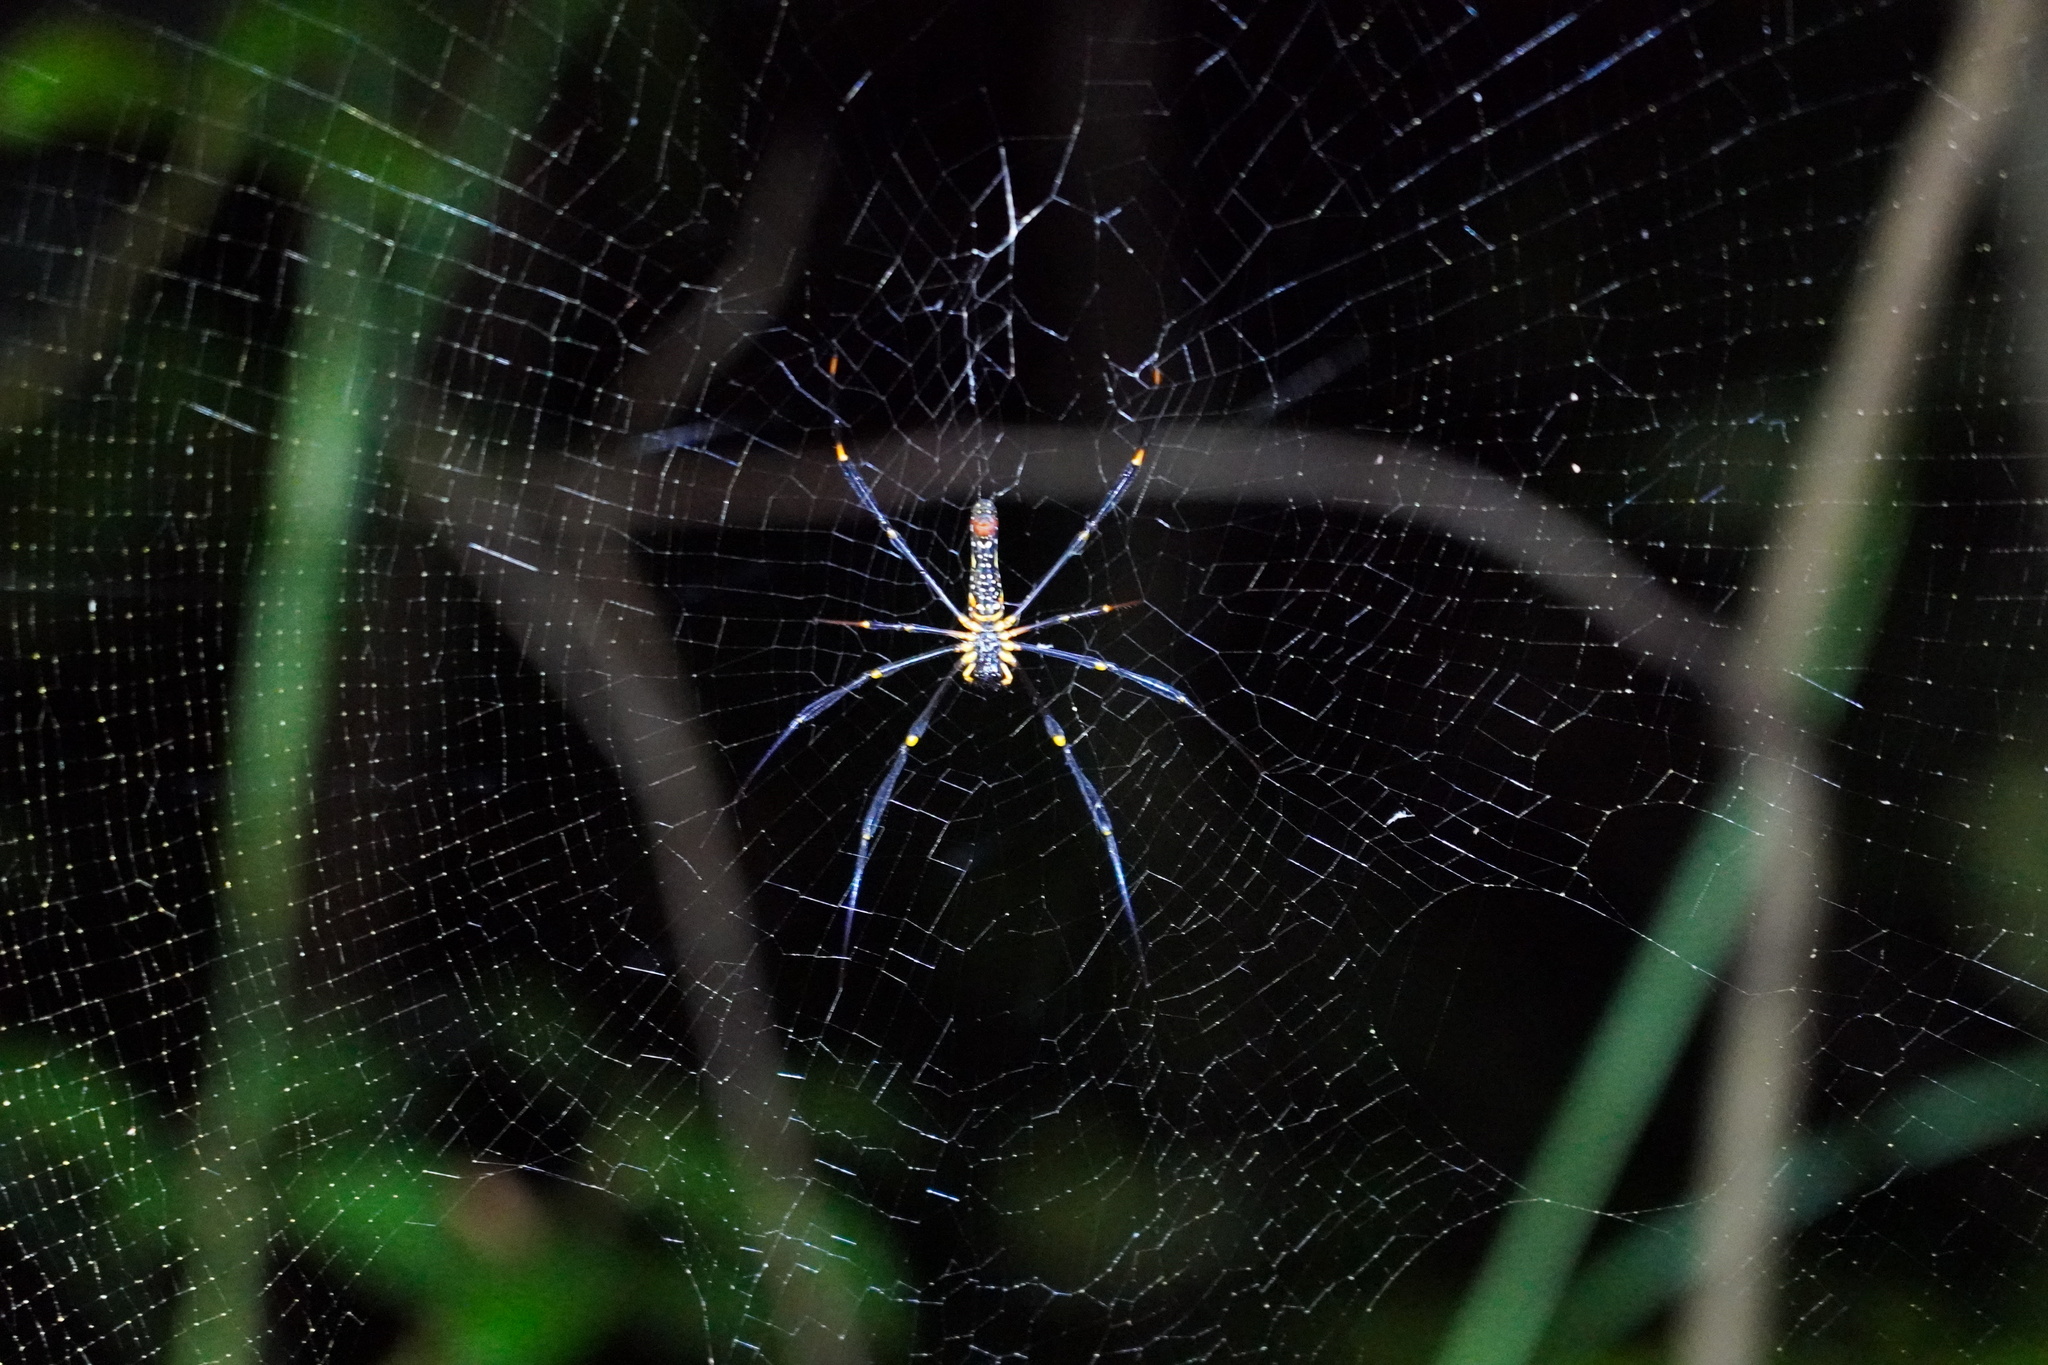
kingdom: Animalia
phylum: Arthropoda
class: Arachnida
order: Araneae
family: Araneidae
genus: Nephila
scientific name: Nephila pilipes
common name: Giant golden orb weaver
